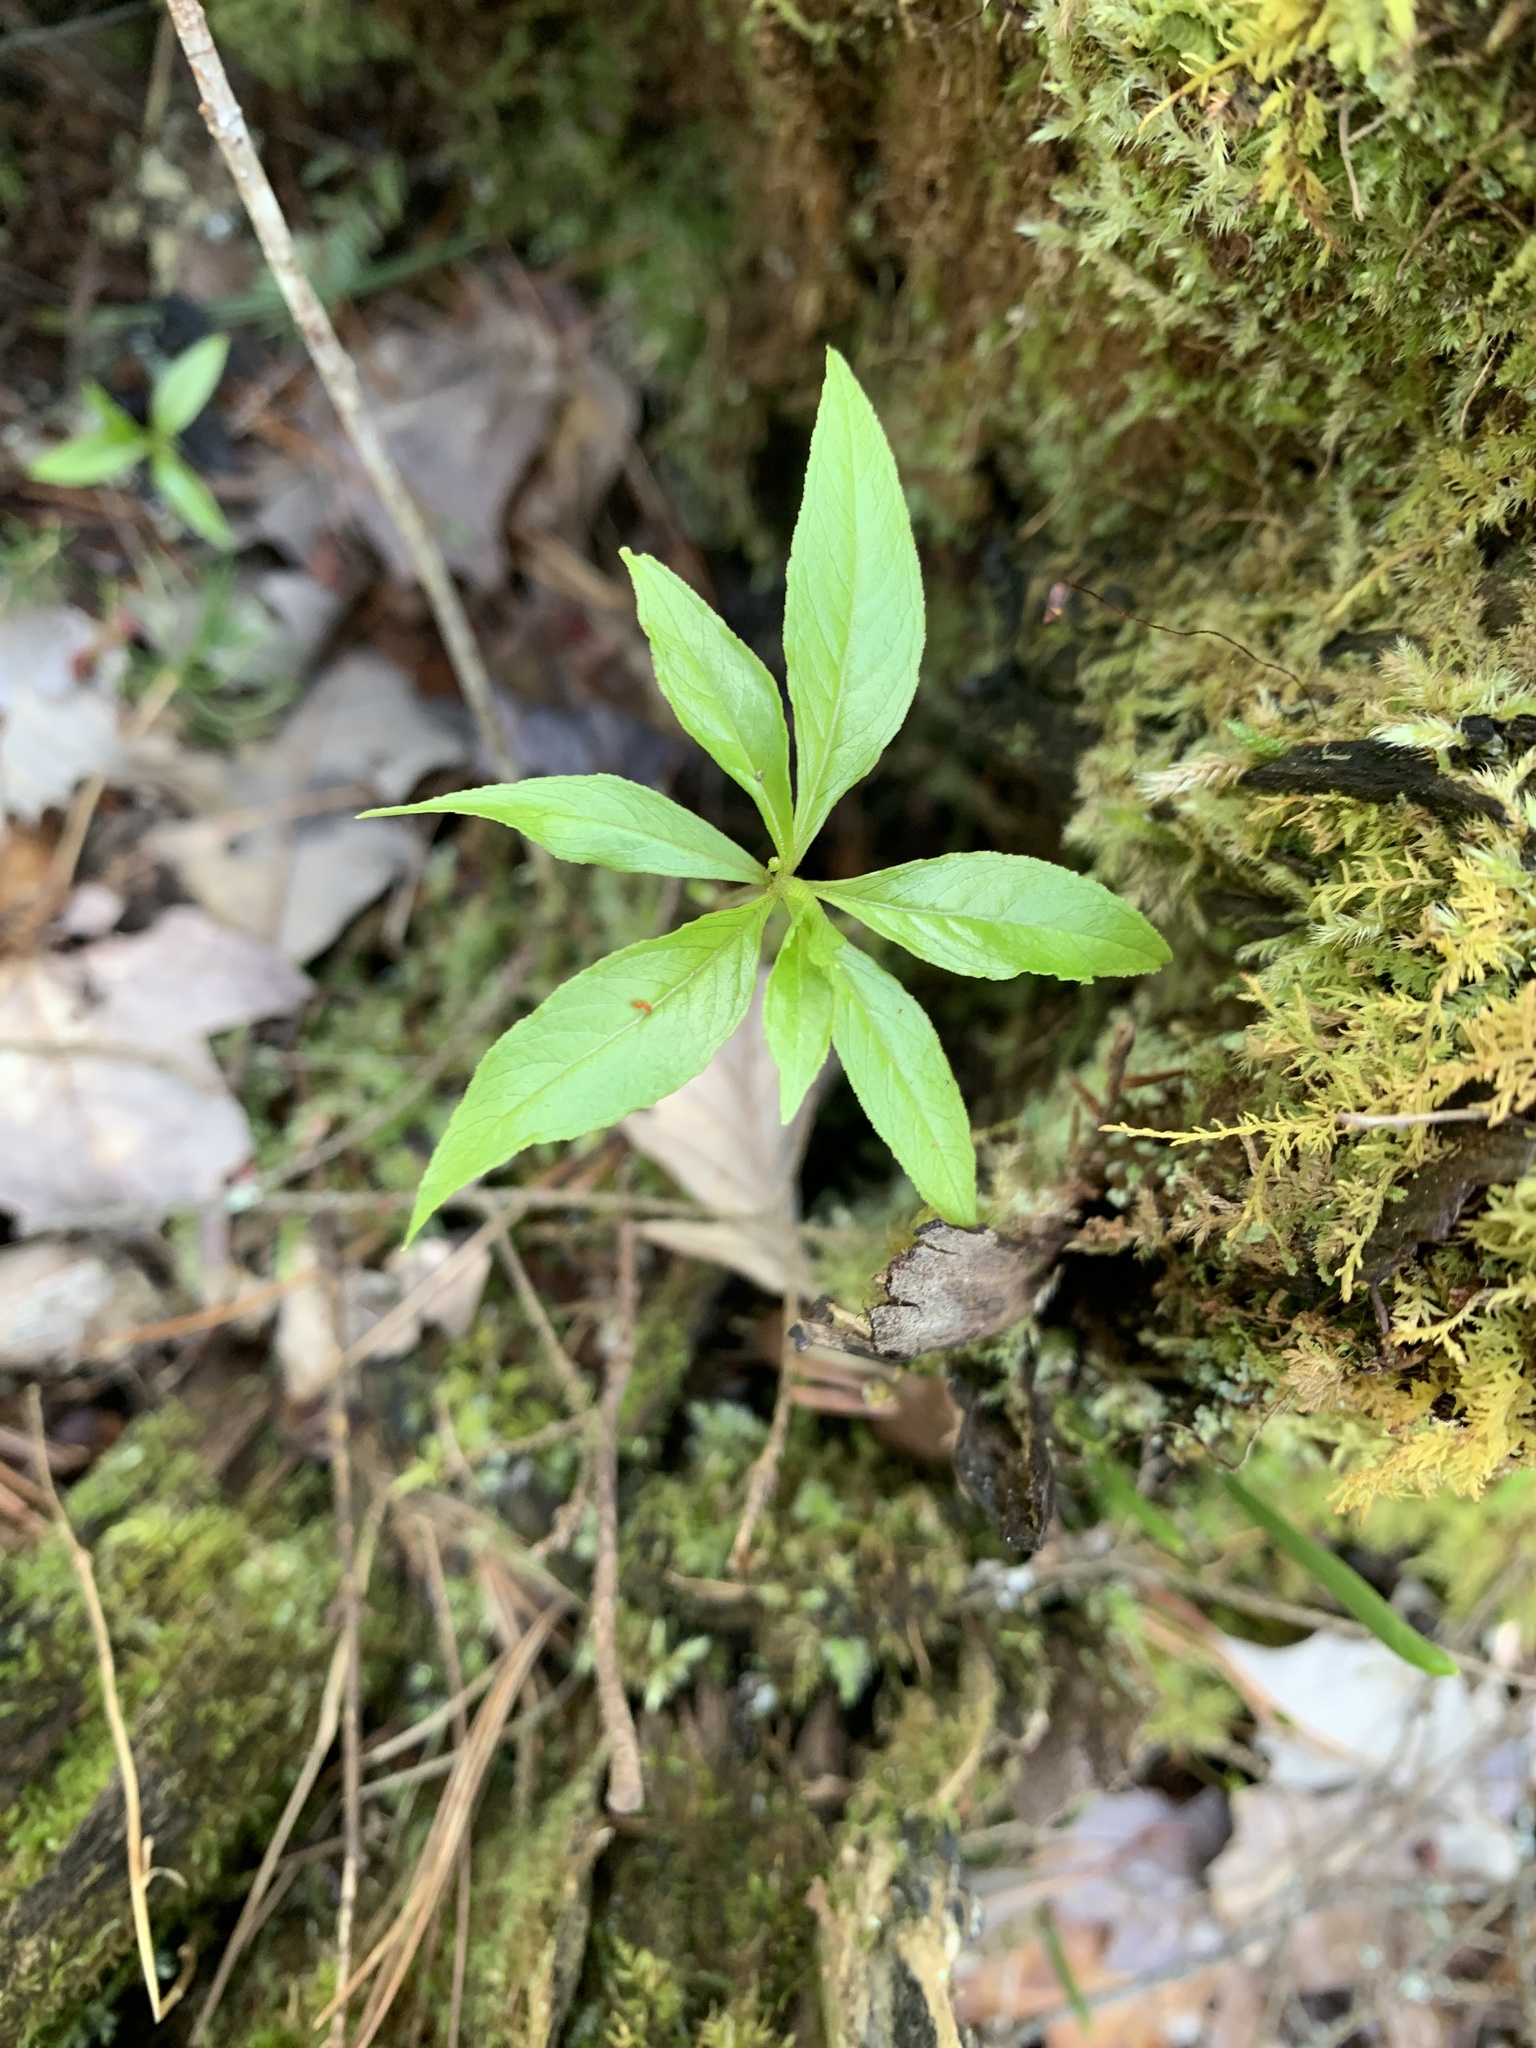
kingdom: Plantae
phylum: Tracheophyta
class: Magnoliopsida
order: Ericales
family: Primulaceae
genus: Lysimachia
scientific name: Lysimachia borealis
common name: American starflower
